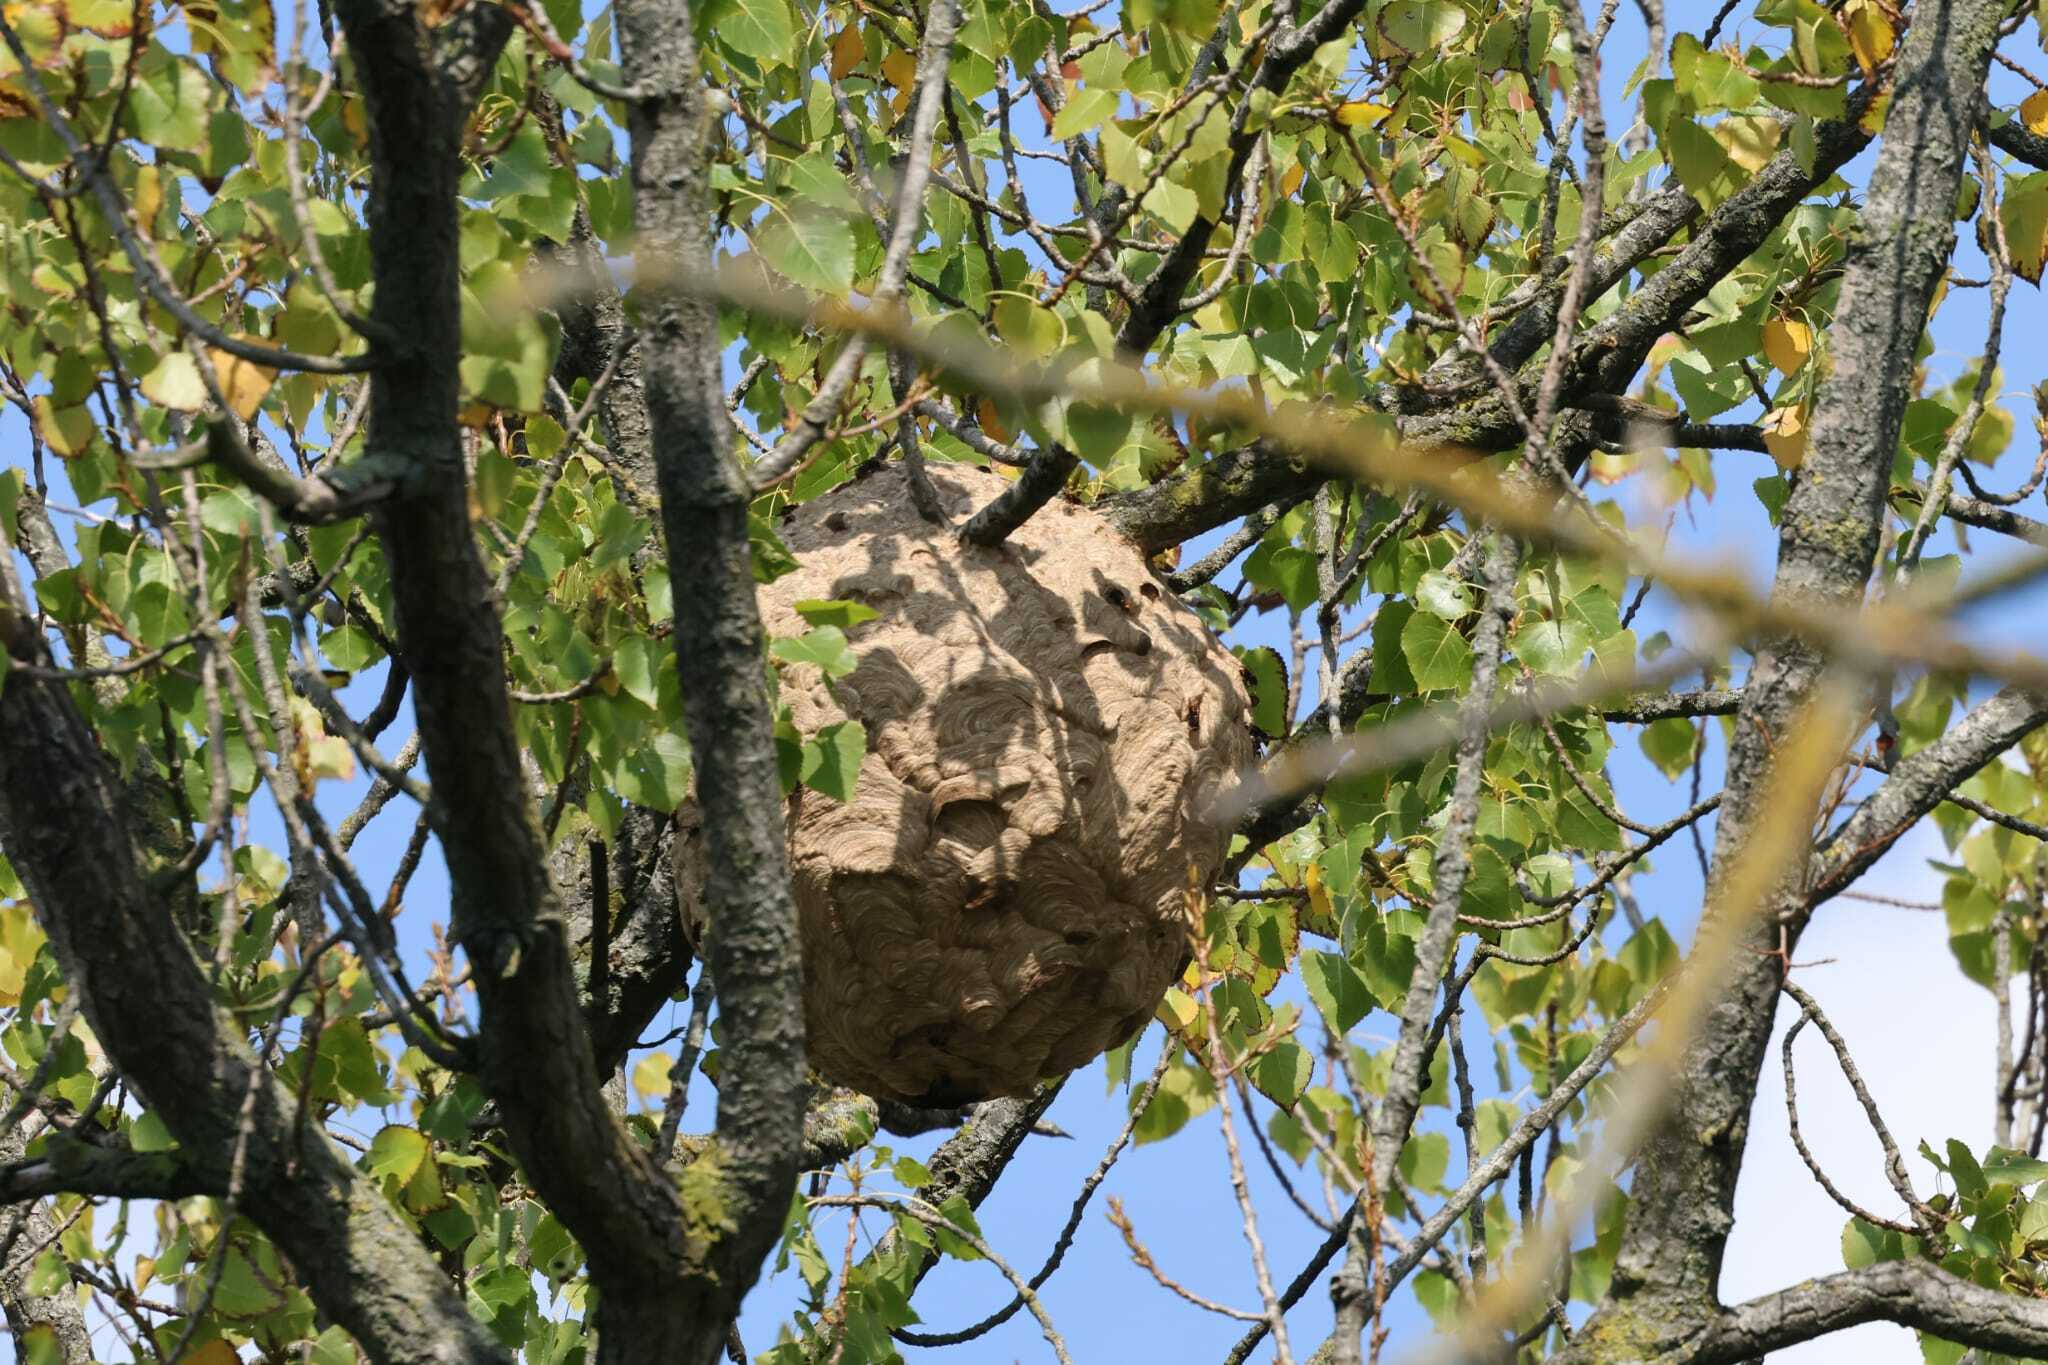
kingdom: Animalia
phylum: Arthropoda
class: Insecta
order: Hymenoptera
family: Vespidae
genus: Vespa
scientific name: Vespa velutina
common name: Asian hornet
